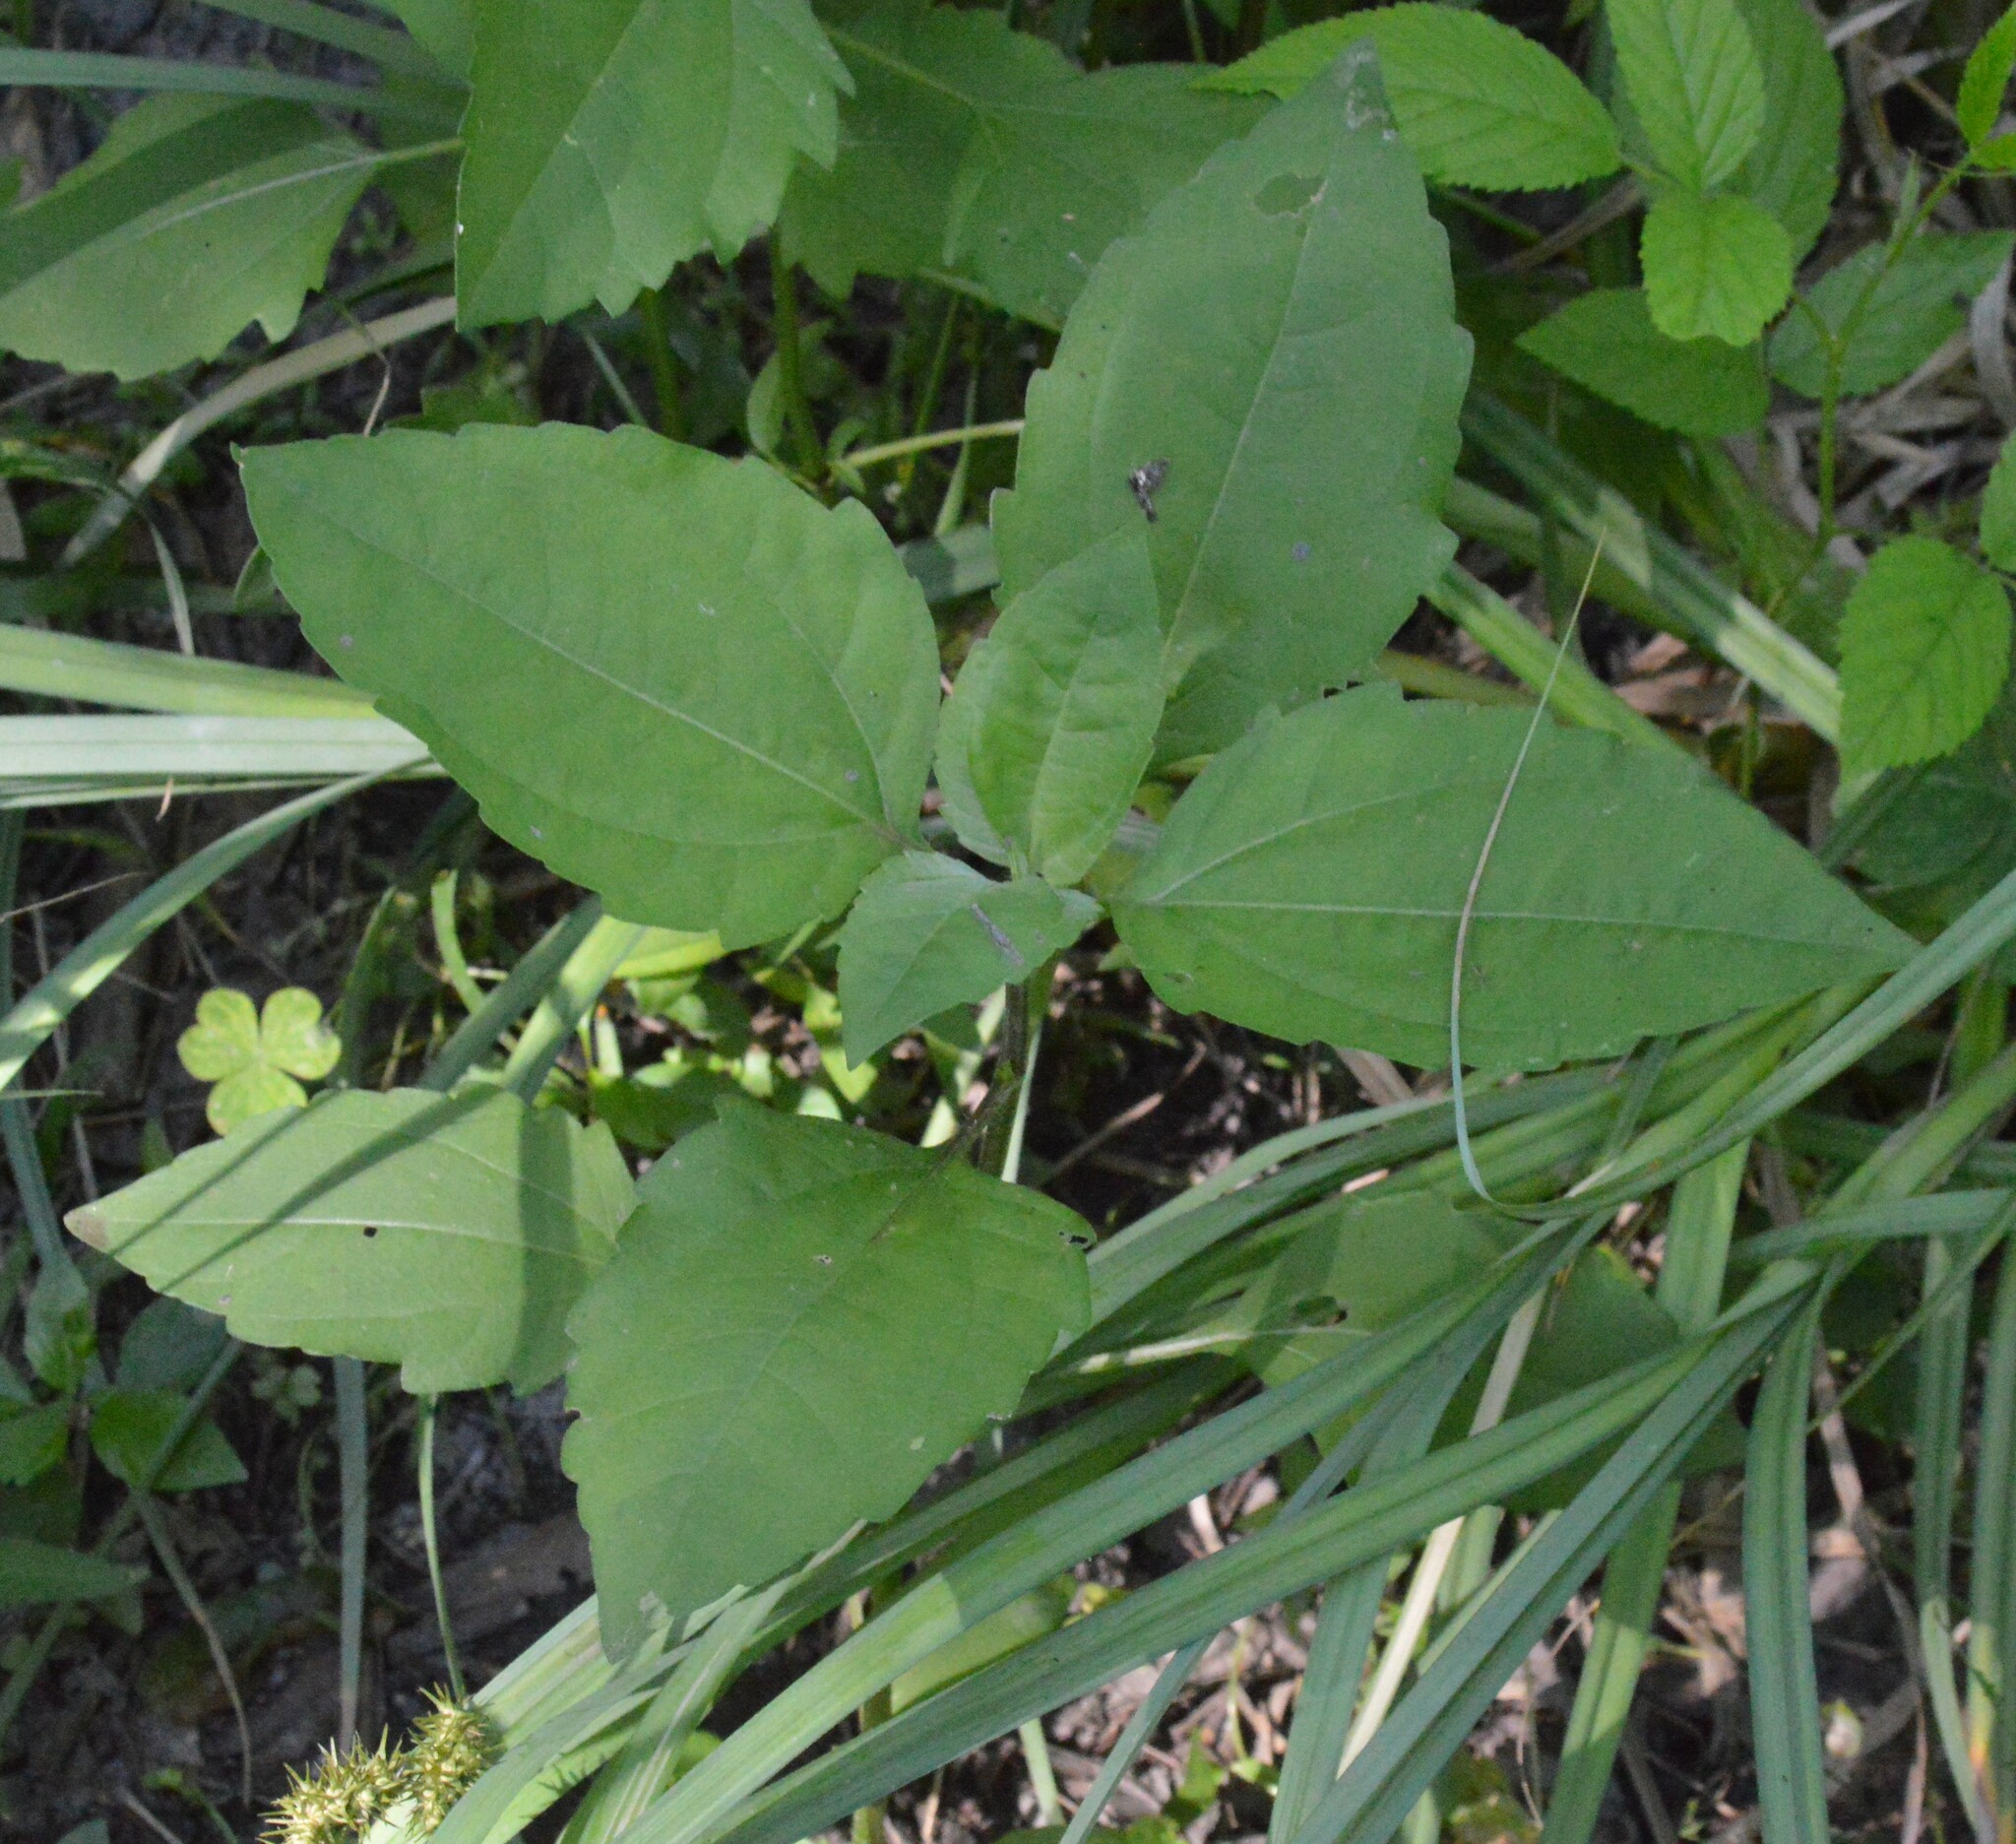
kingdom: Plantae
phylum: Tracheophyta
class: Magnoliopsida
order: Asterales
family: Asteraceae
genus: Iva
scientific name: Iva annua
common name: Marsh-elder
